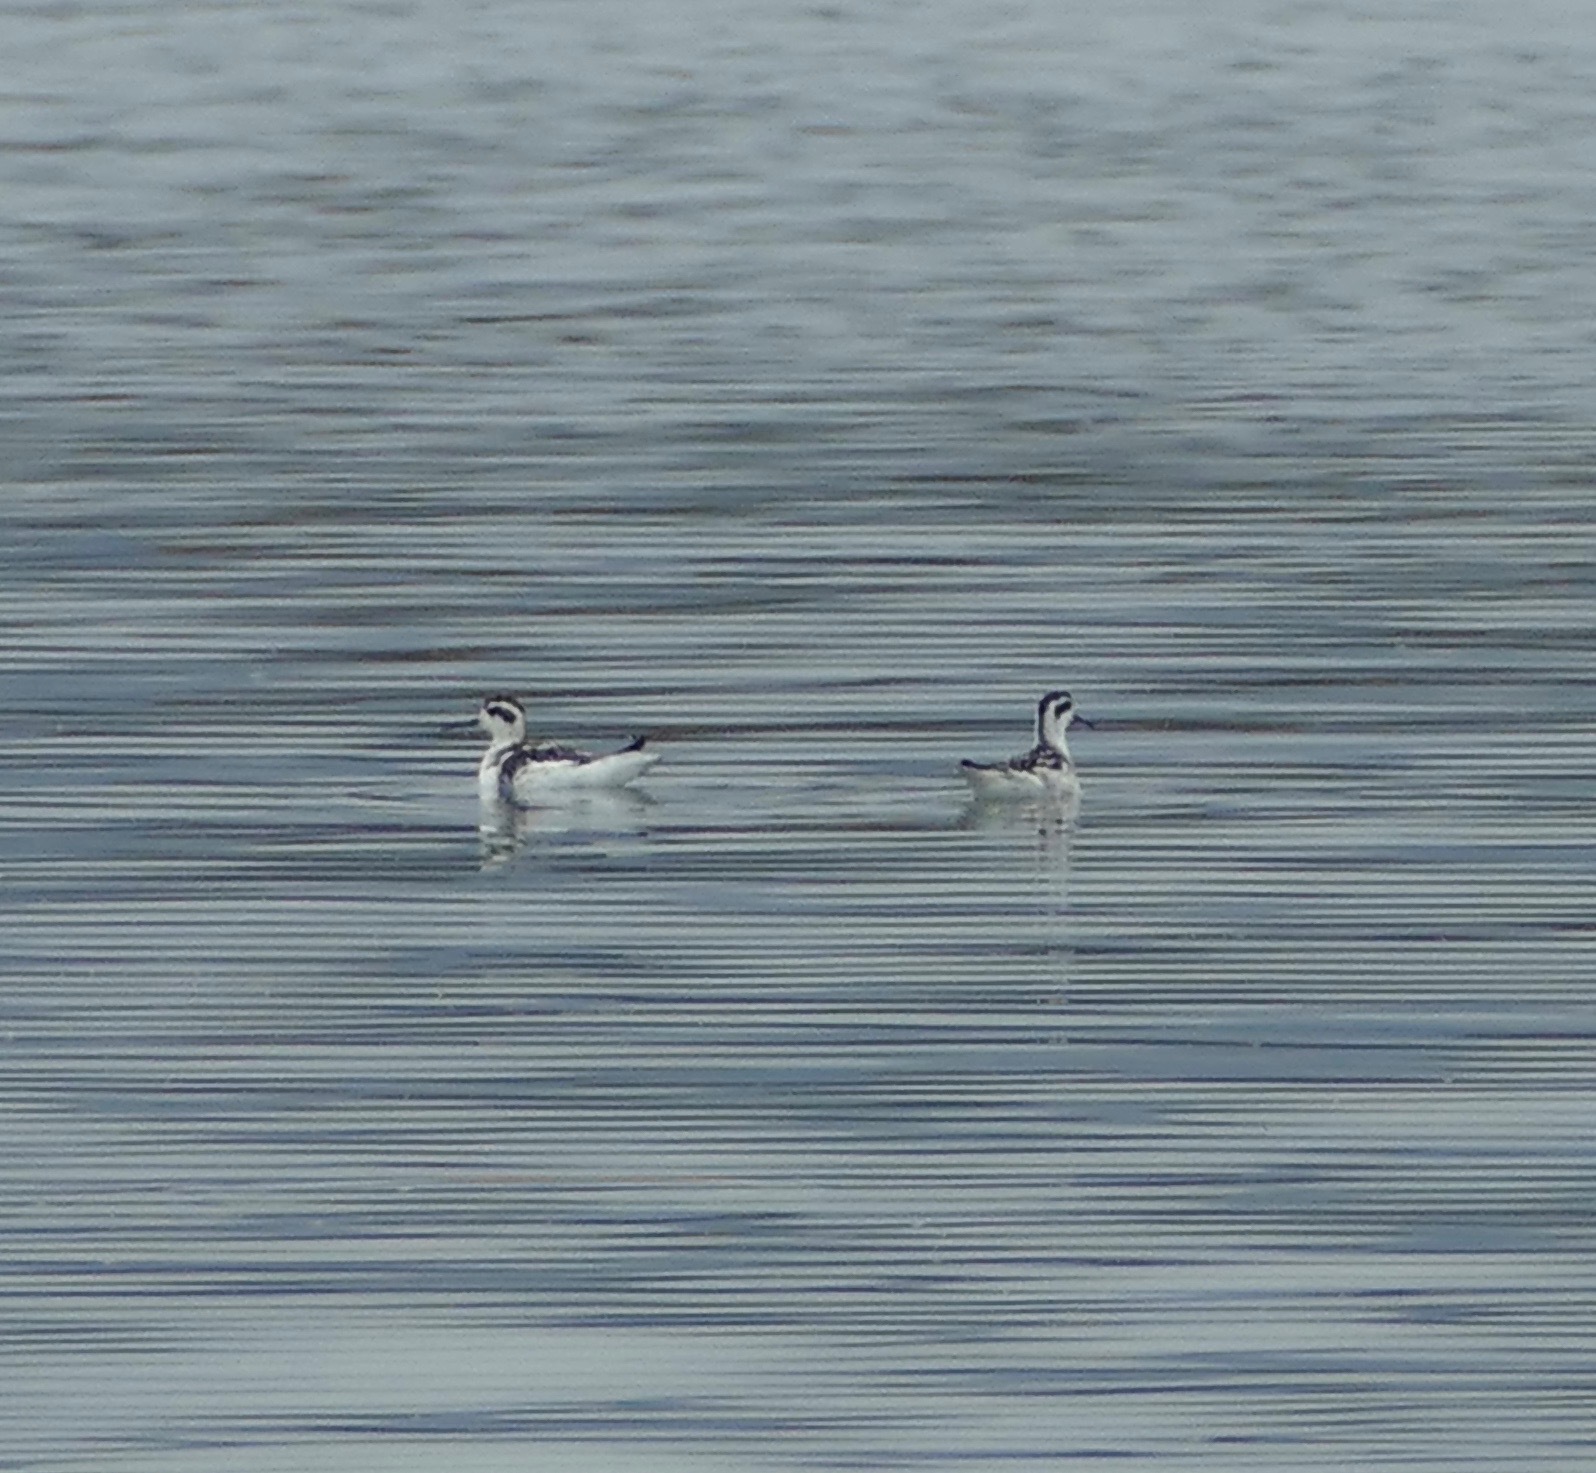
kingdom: Animalia
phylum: Chordata
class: Aves
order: Charadriiformes
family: Scolopacidae
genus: Phalaropus
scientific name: Phalaropus lobatus
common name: Red-necked phalarope
